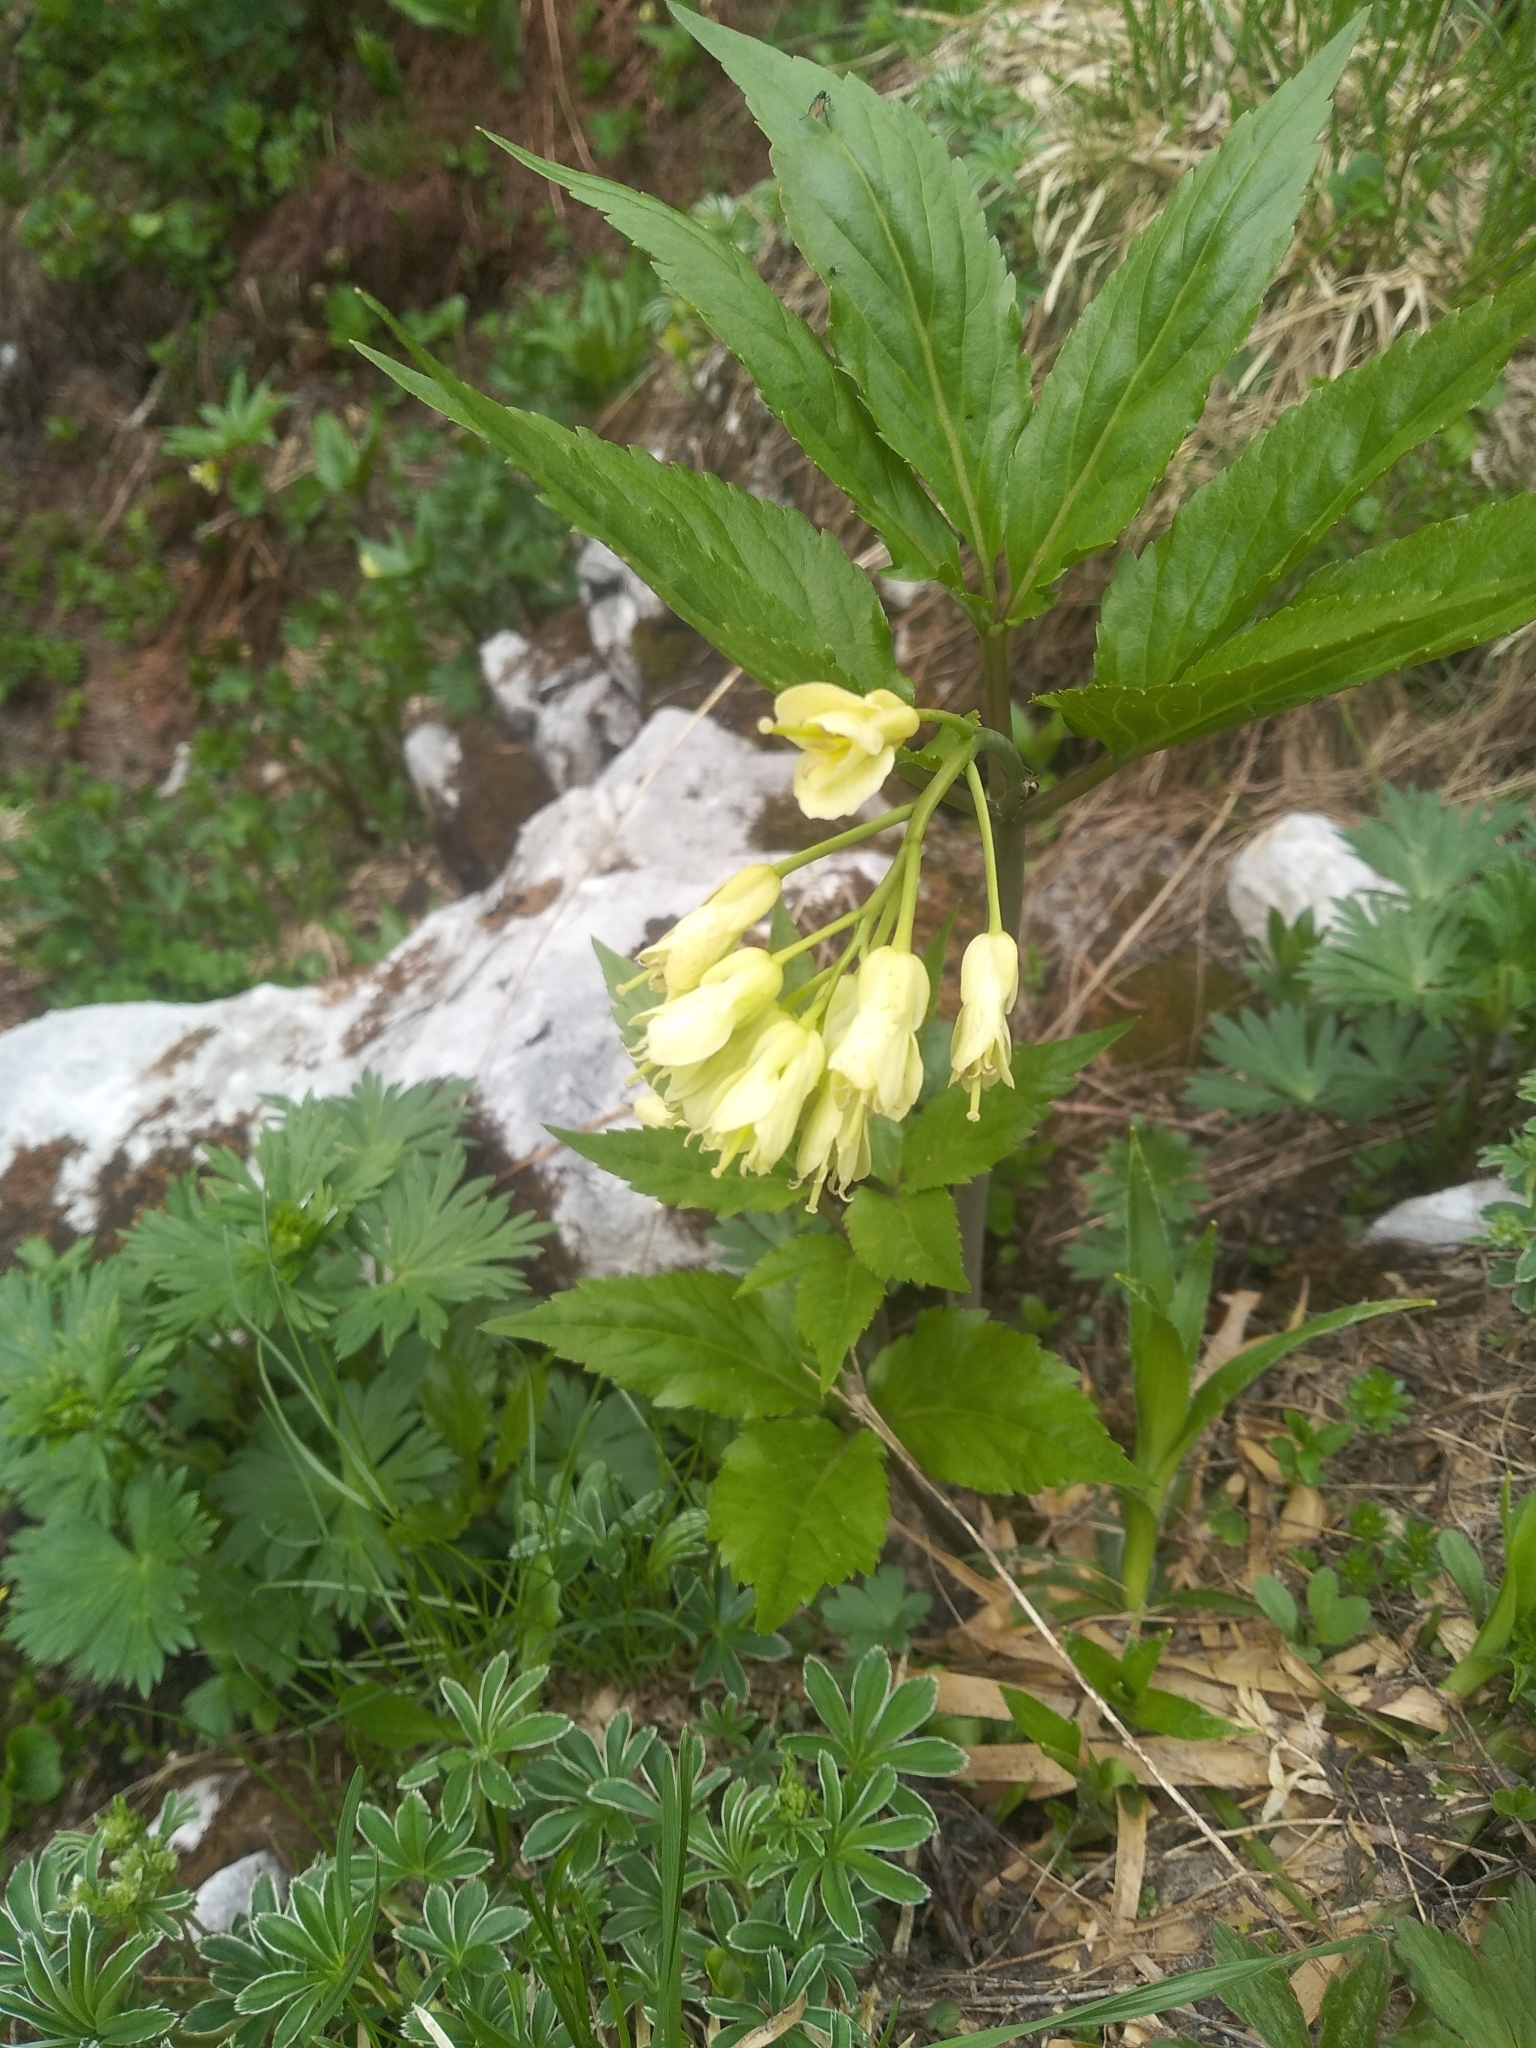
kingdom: Plantae
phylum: Tracheophyta
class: Magnoliopsida
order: Brassicales
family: Brassicaceae
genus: Cardamine
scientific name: Cardamine enneaphyllos
